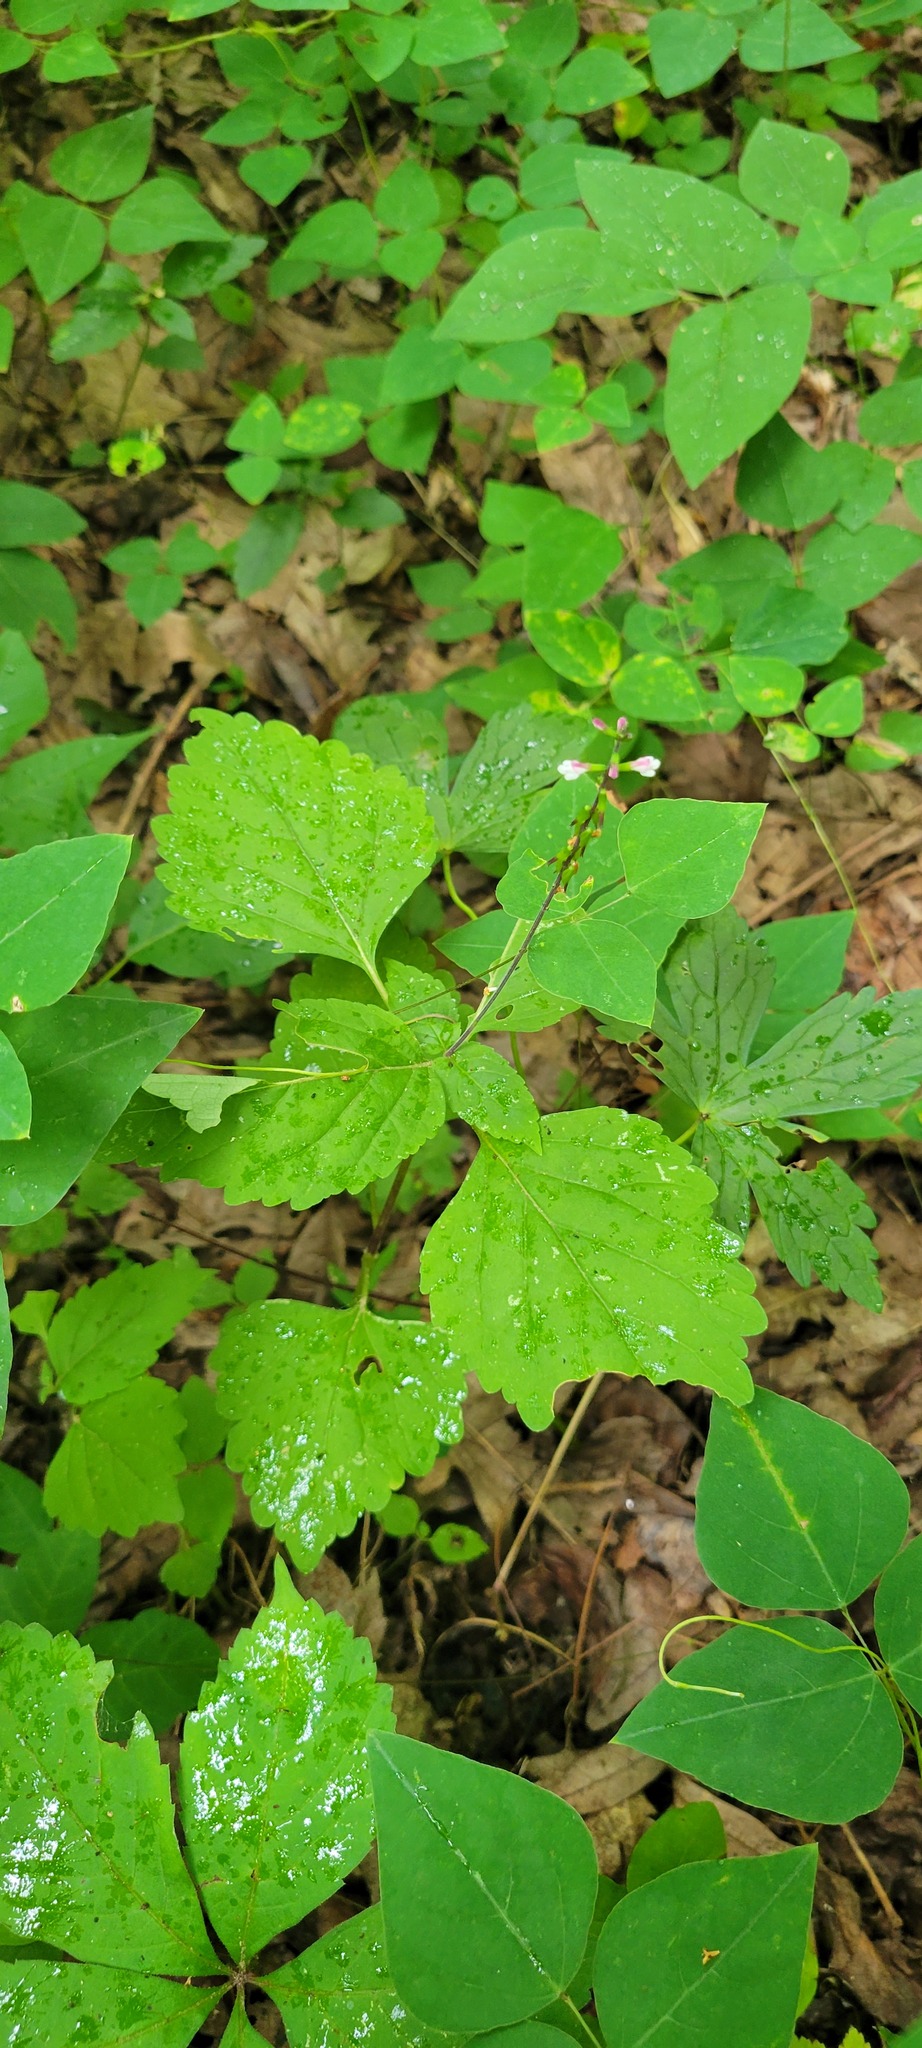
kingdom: Plantae
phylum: Tracheophyta
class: Magnoliopsida
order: Lamiales
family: Phrymaceae
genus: Phryma
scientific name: Phryma leptostachya
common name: American lopseed
